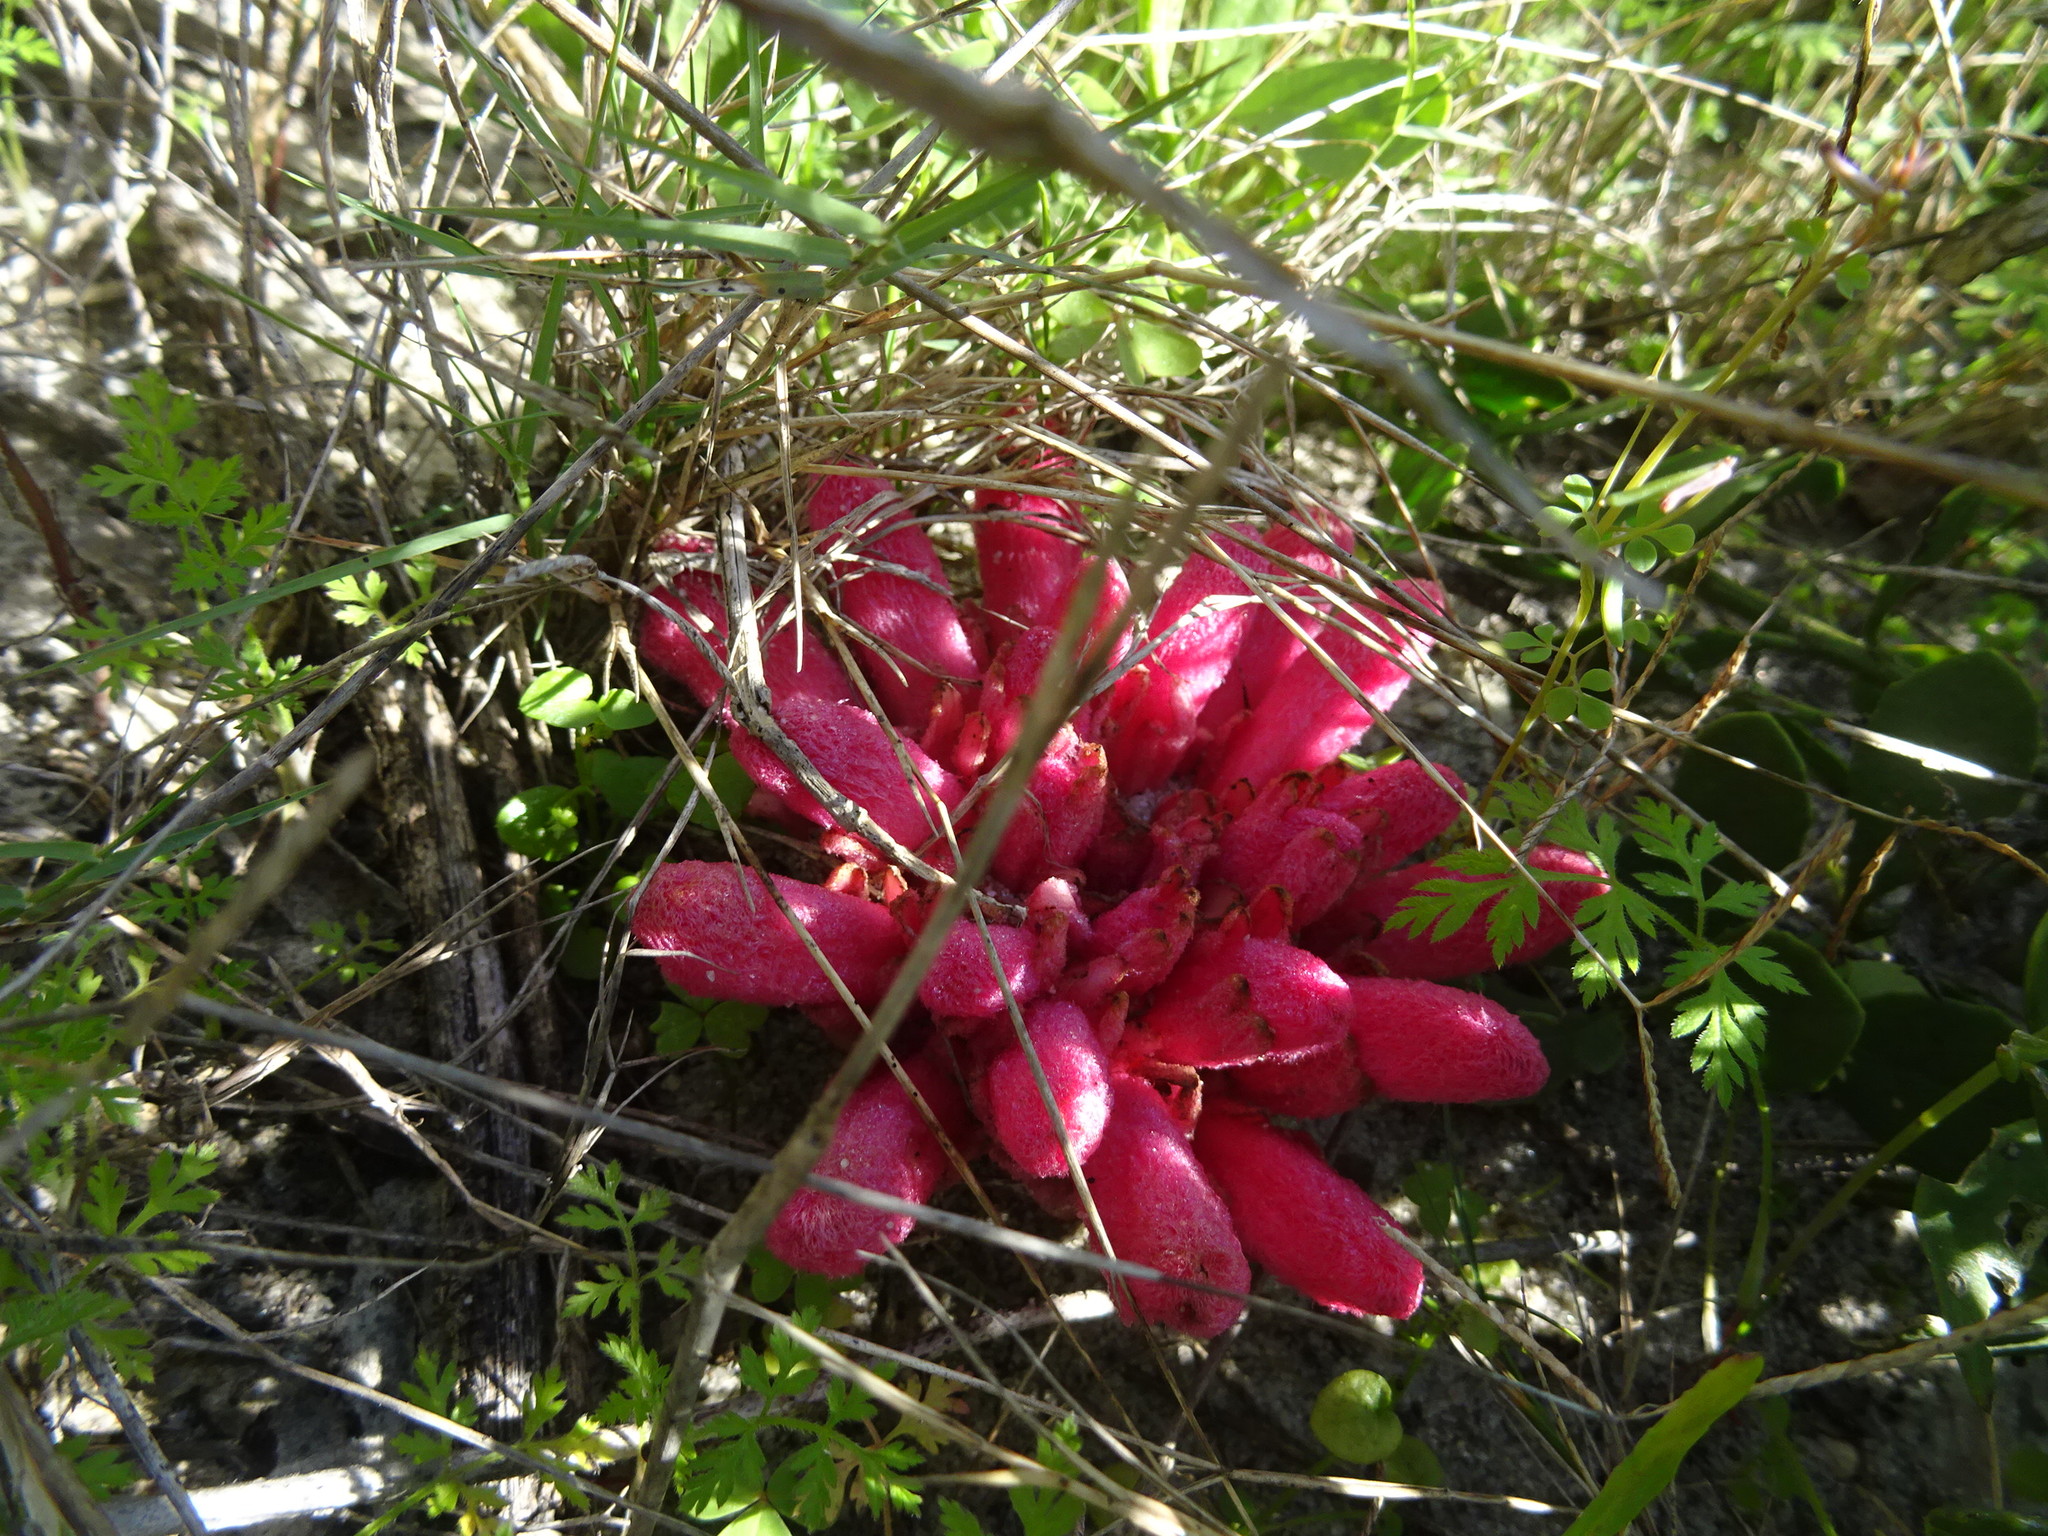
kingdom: Plantae
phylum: Tracheophyta
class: Magnoliopsida
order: Lamiales
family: Orobanchaceae
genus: Hyobanche
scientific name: Hyobanche sanguinea
